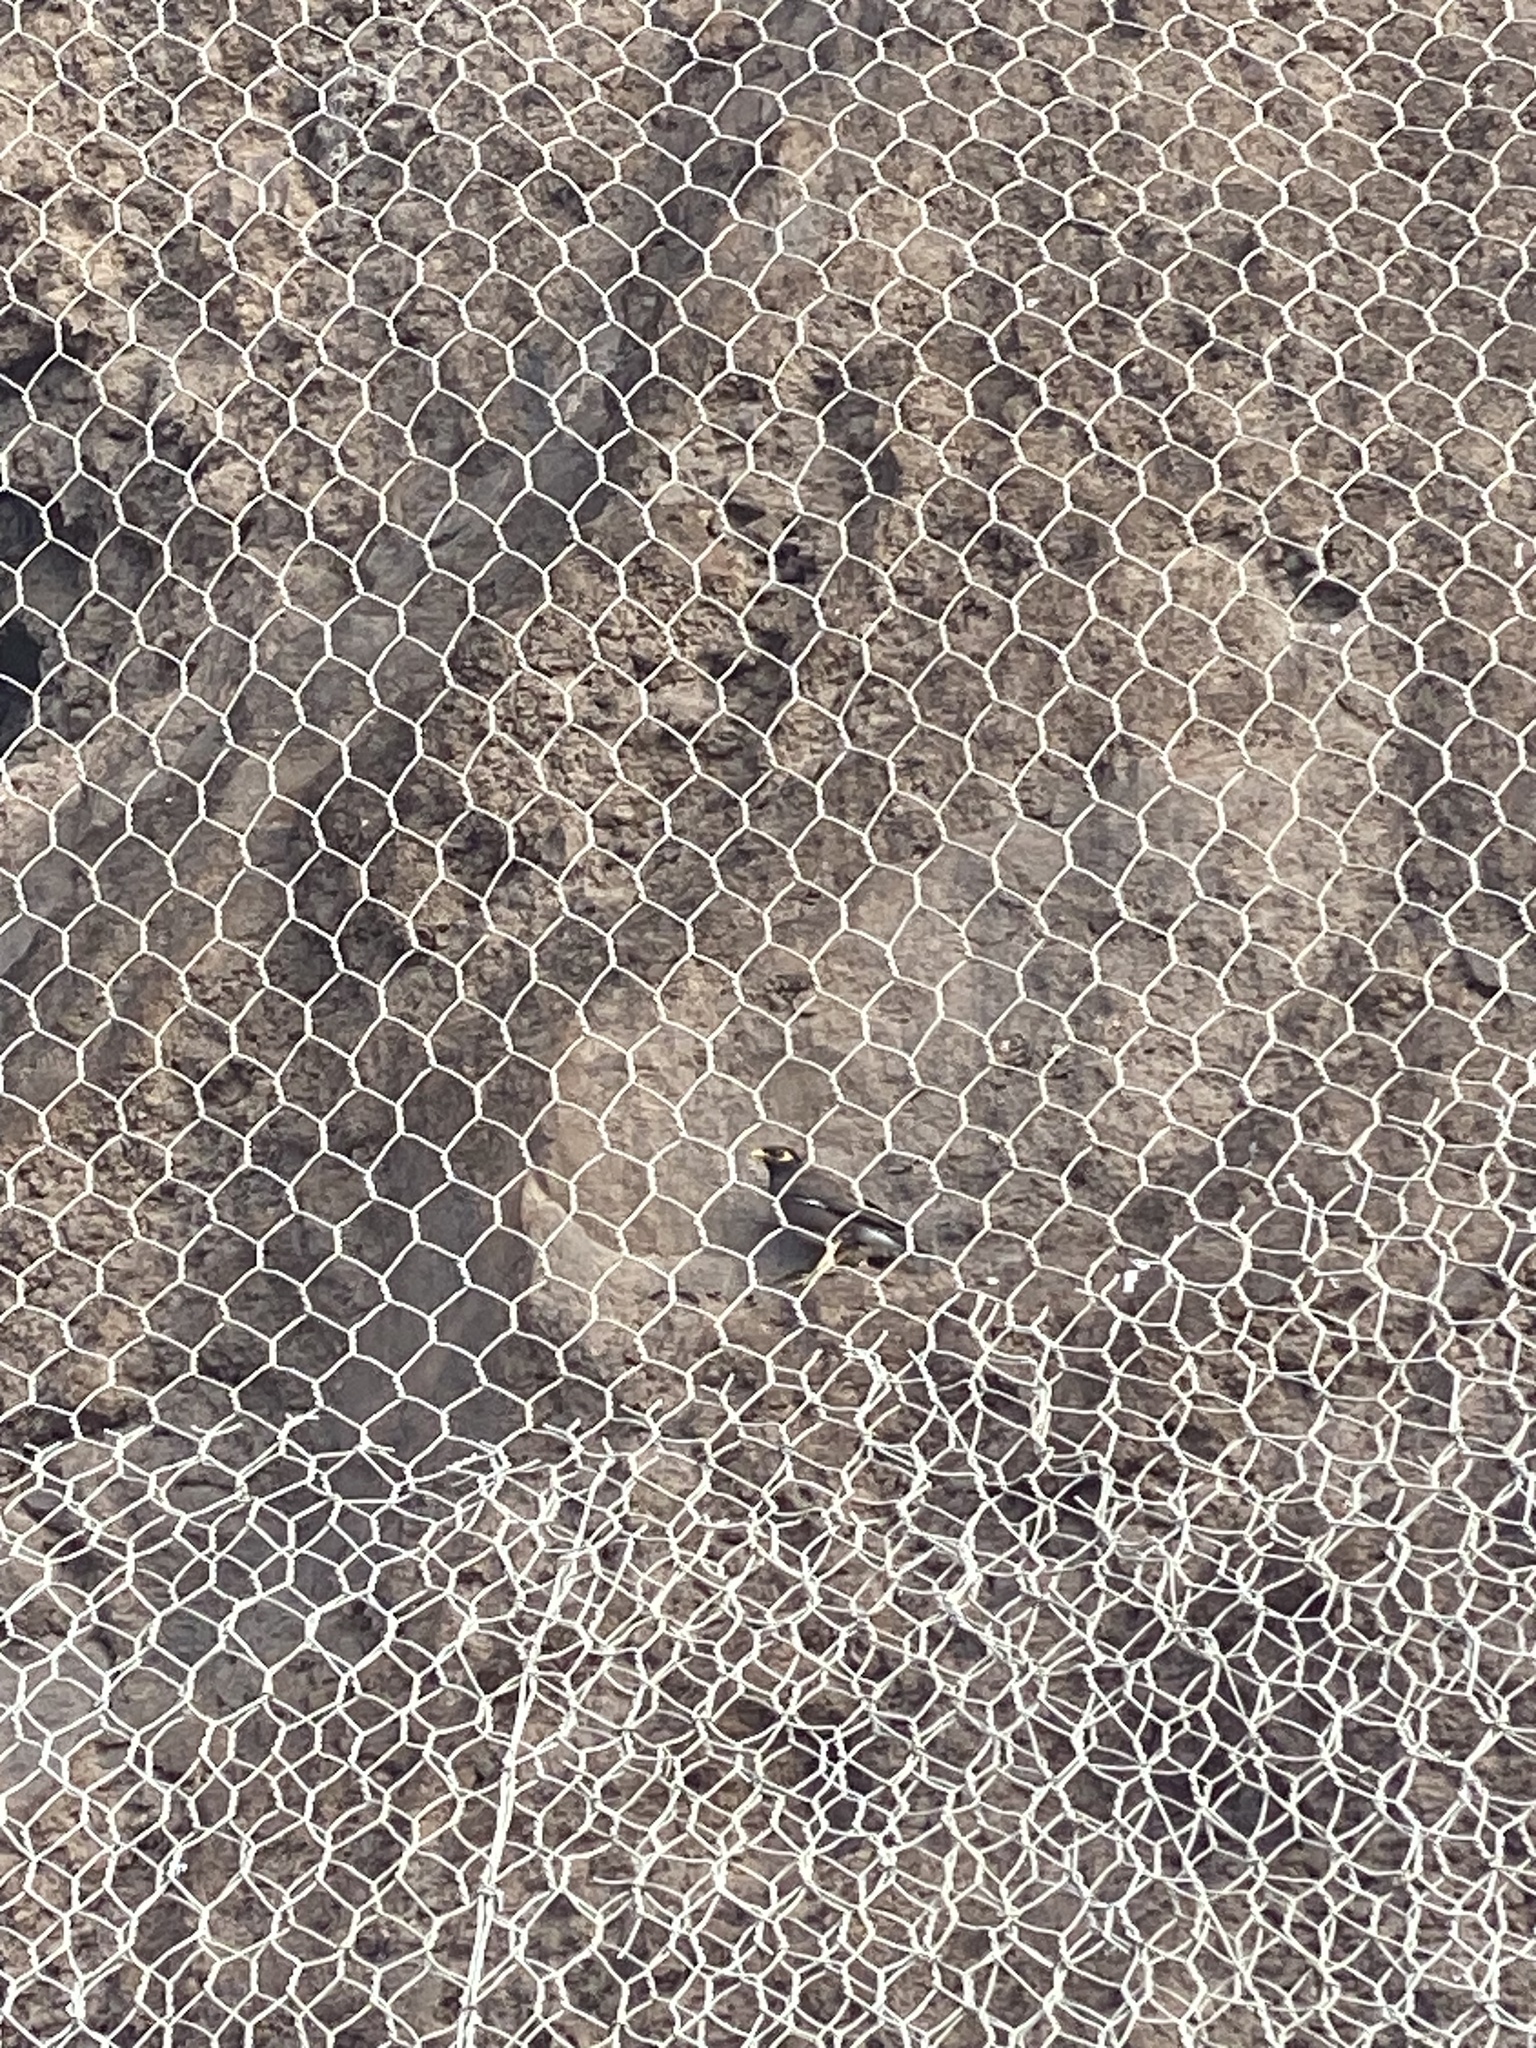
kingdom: Animalia
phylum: Chordata
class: Aves
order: Passeriformes
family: Sturnidae
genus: Acridotheres
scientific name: Acridotheres tristis
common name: Common myna
